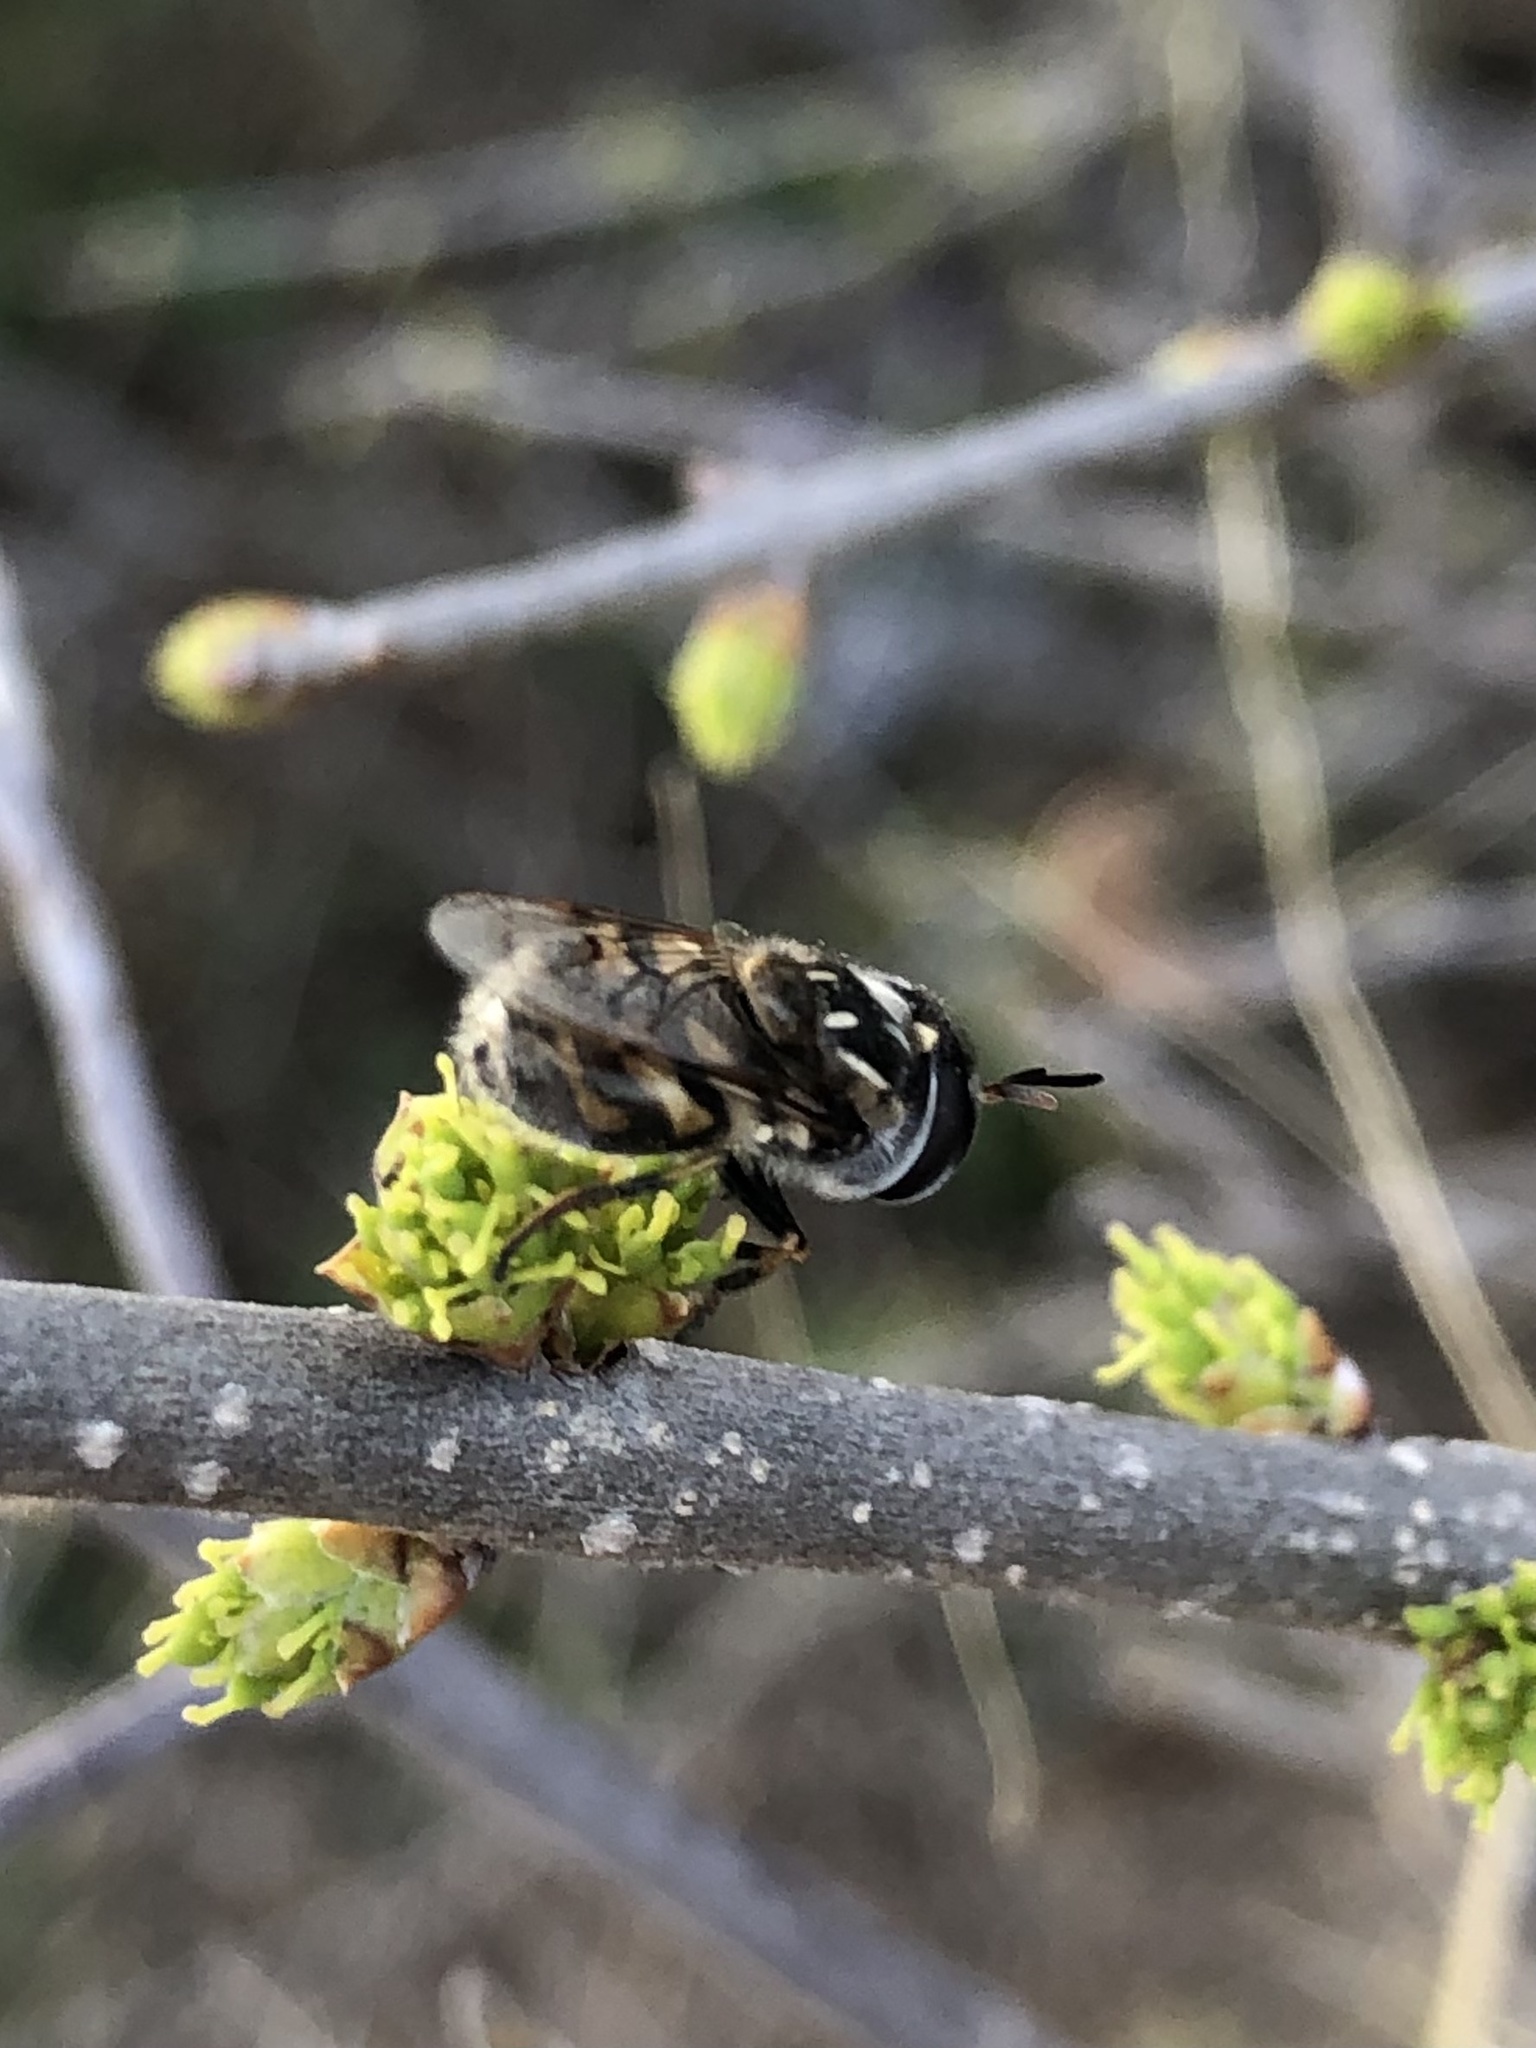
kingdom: Animalia
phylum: Arthropoda
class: Insecta
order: Diptera
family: Syrphidae
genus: Copestylum
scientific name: Copestylum marginatum
